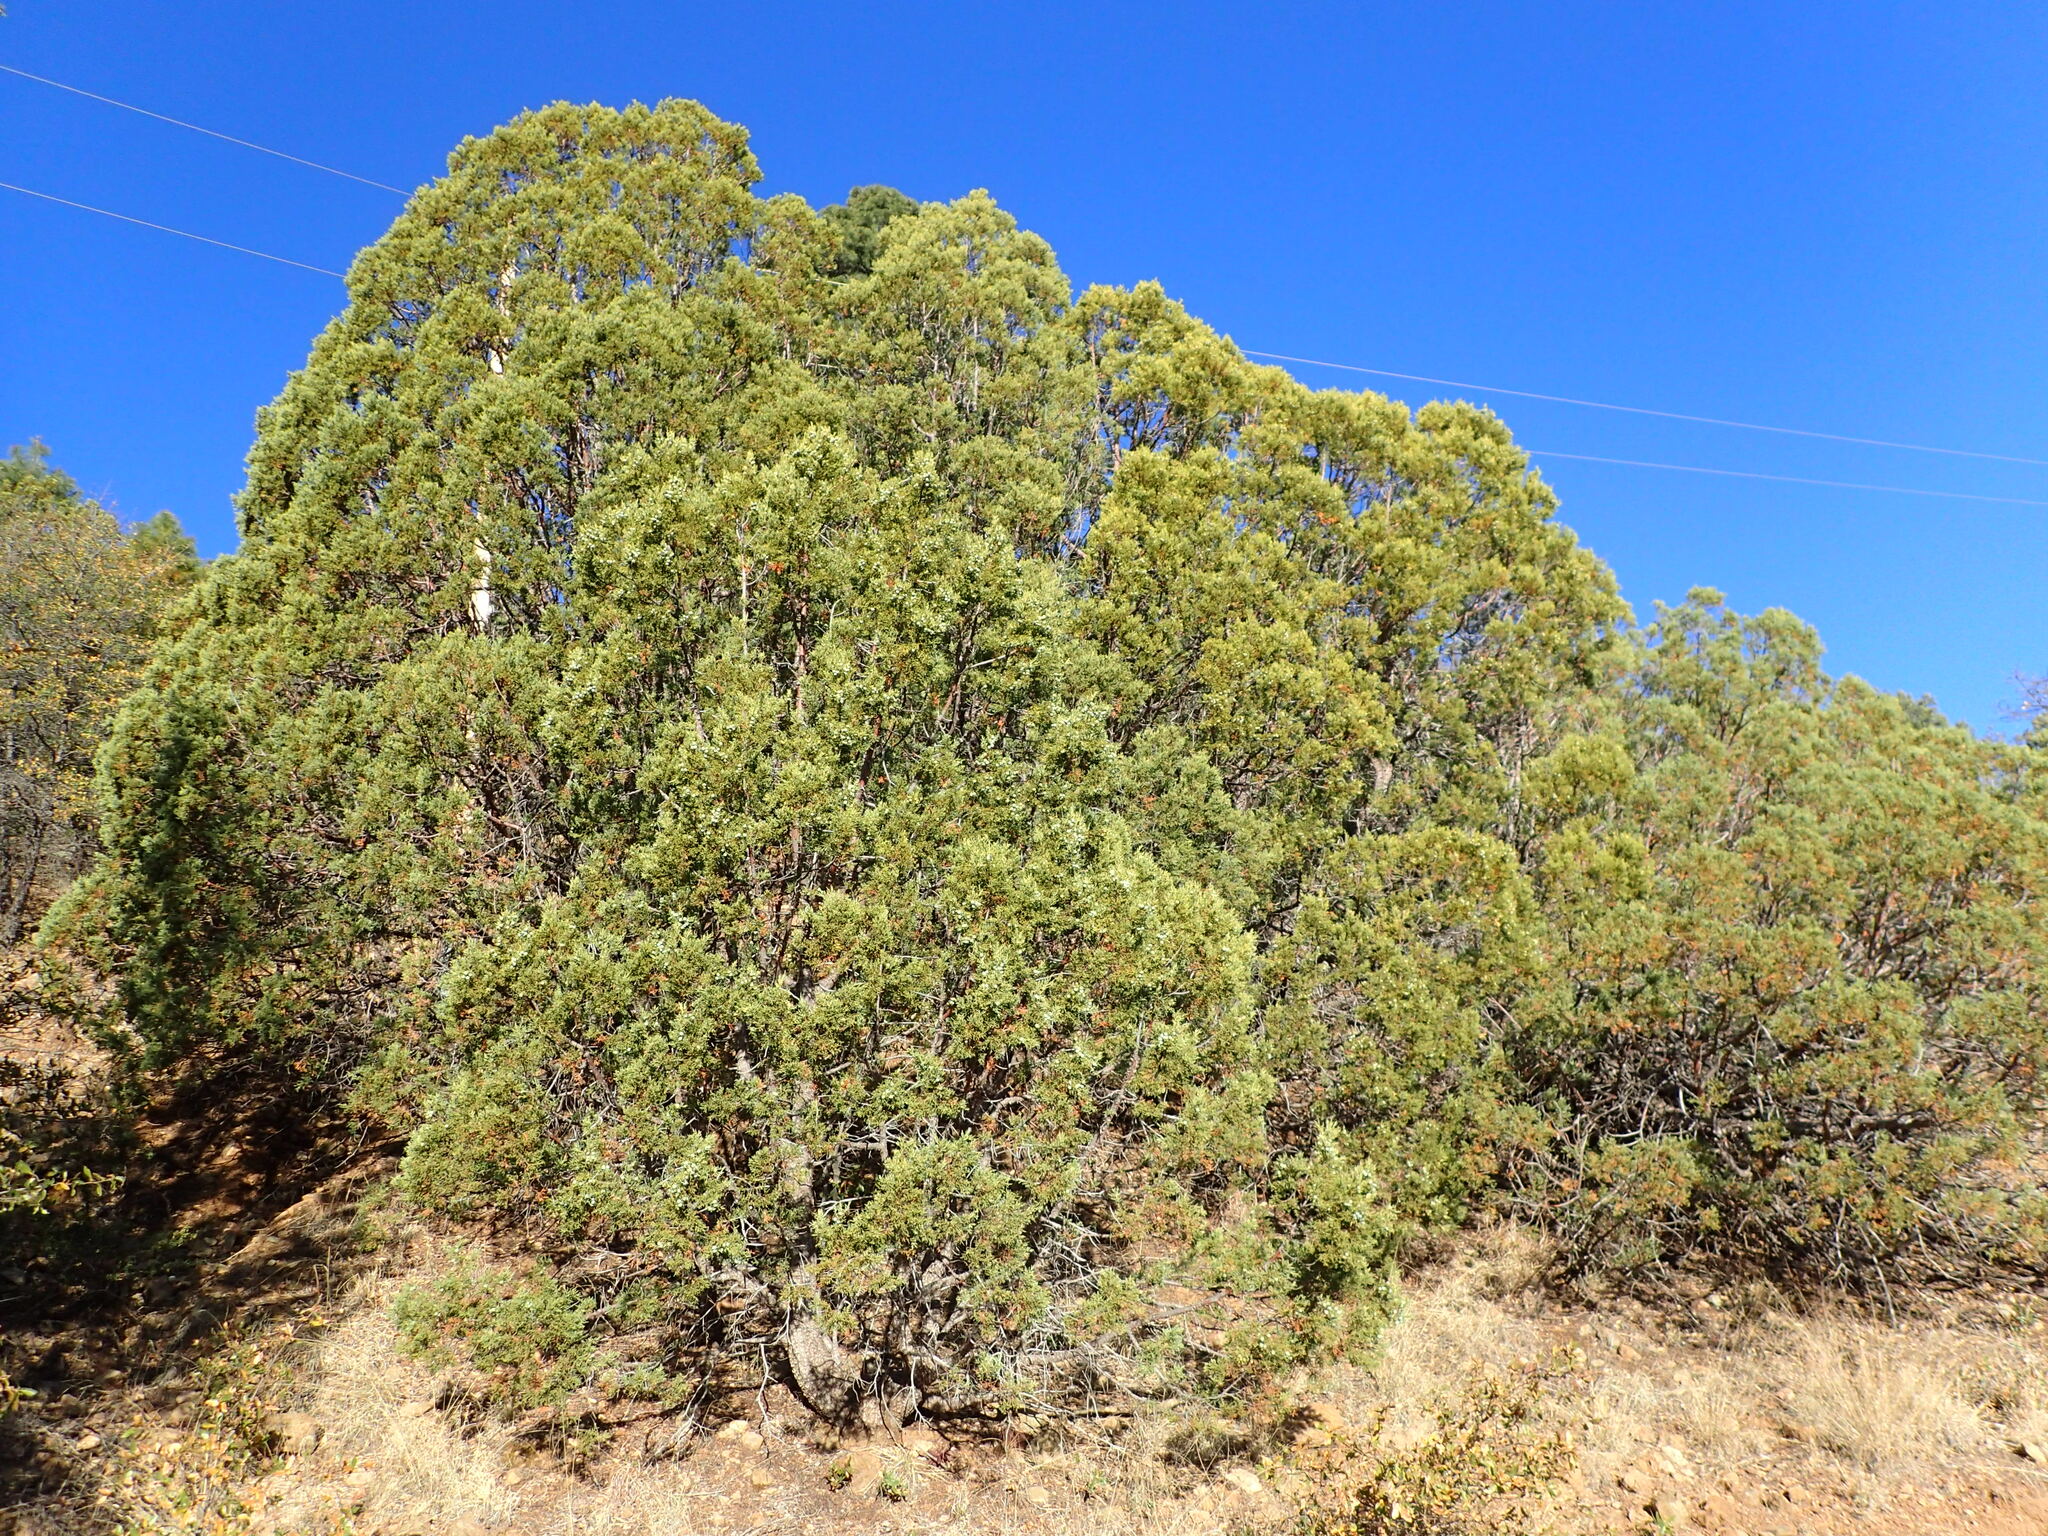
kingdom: Plantae
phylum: Tracheophyta
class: Pinopsida
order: Pinales
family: Cupressaceae
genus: Juniperus
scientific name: Juniperus deppeana
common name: Alligator juniper
